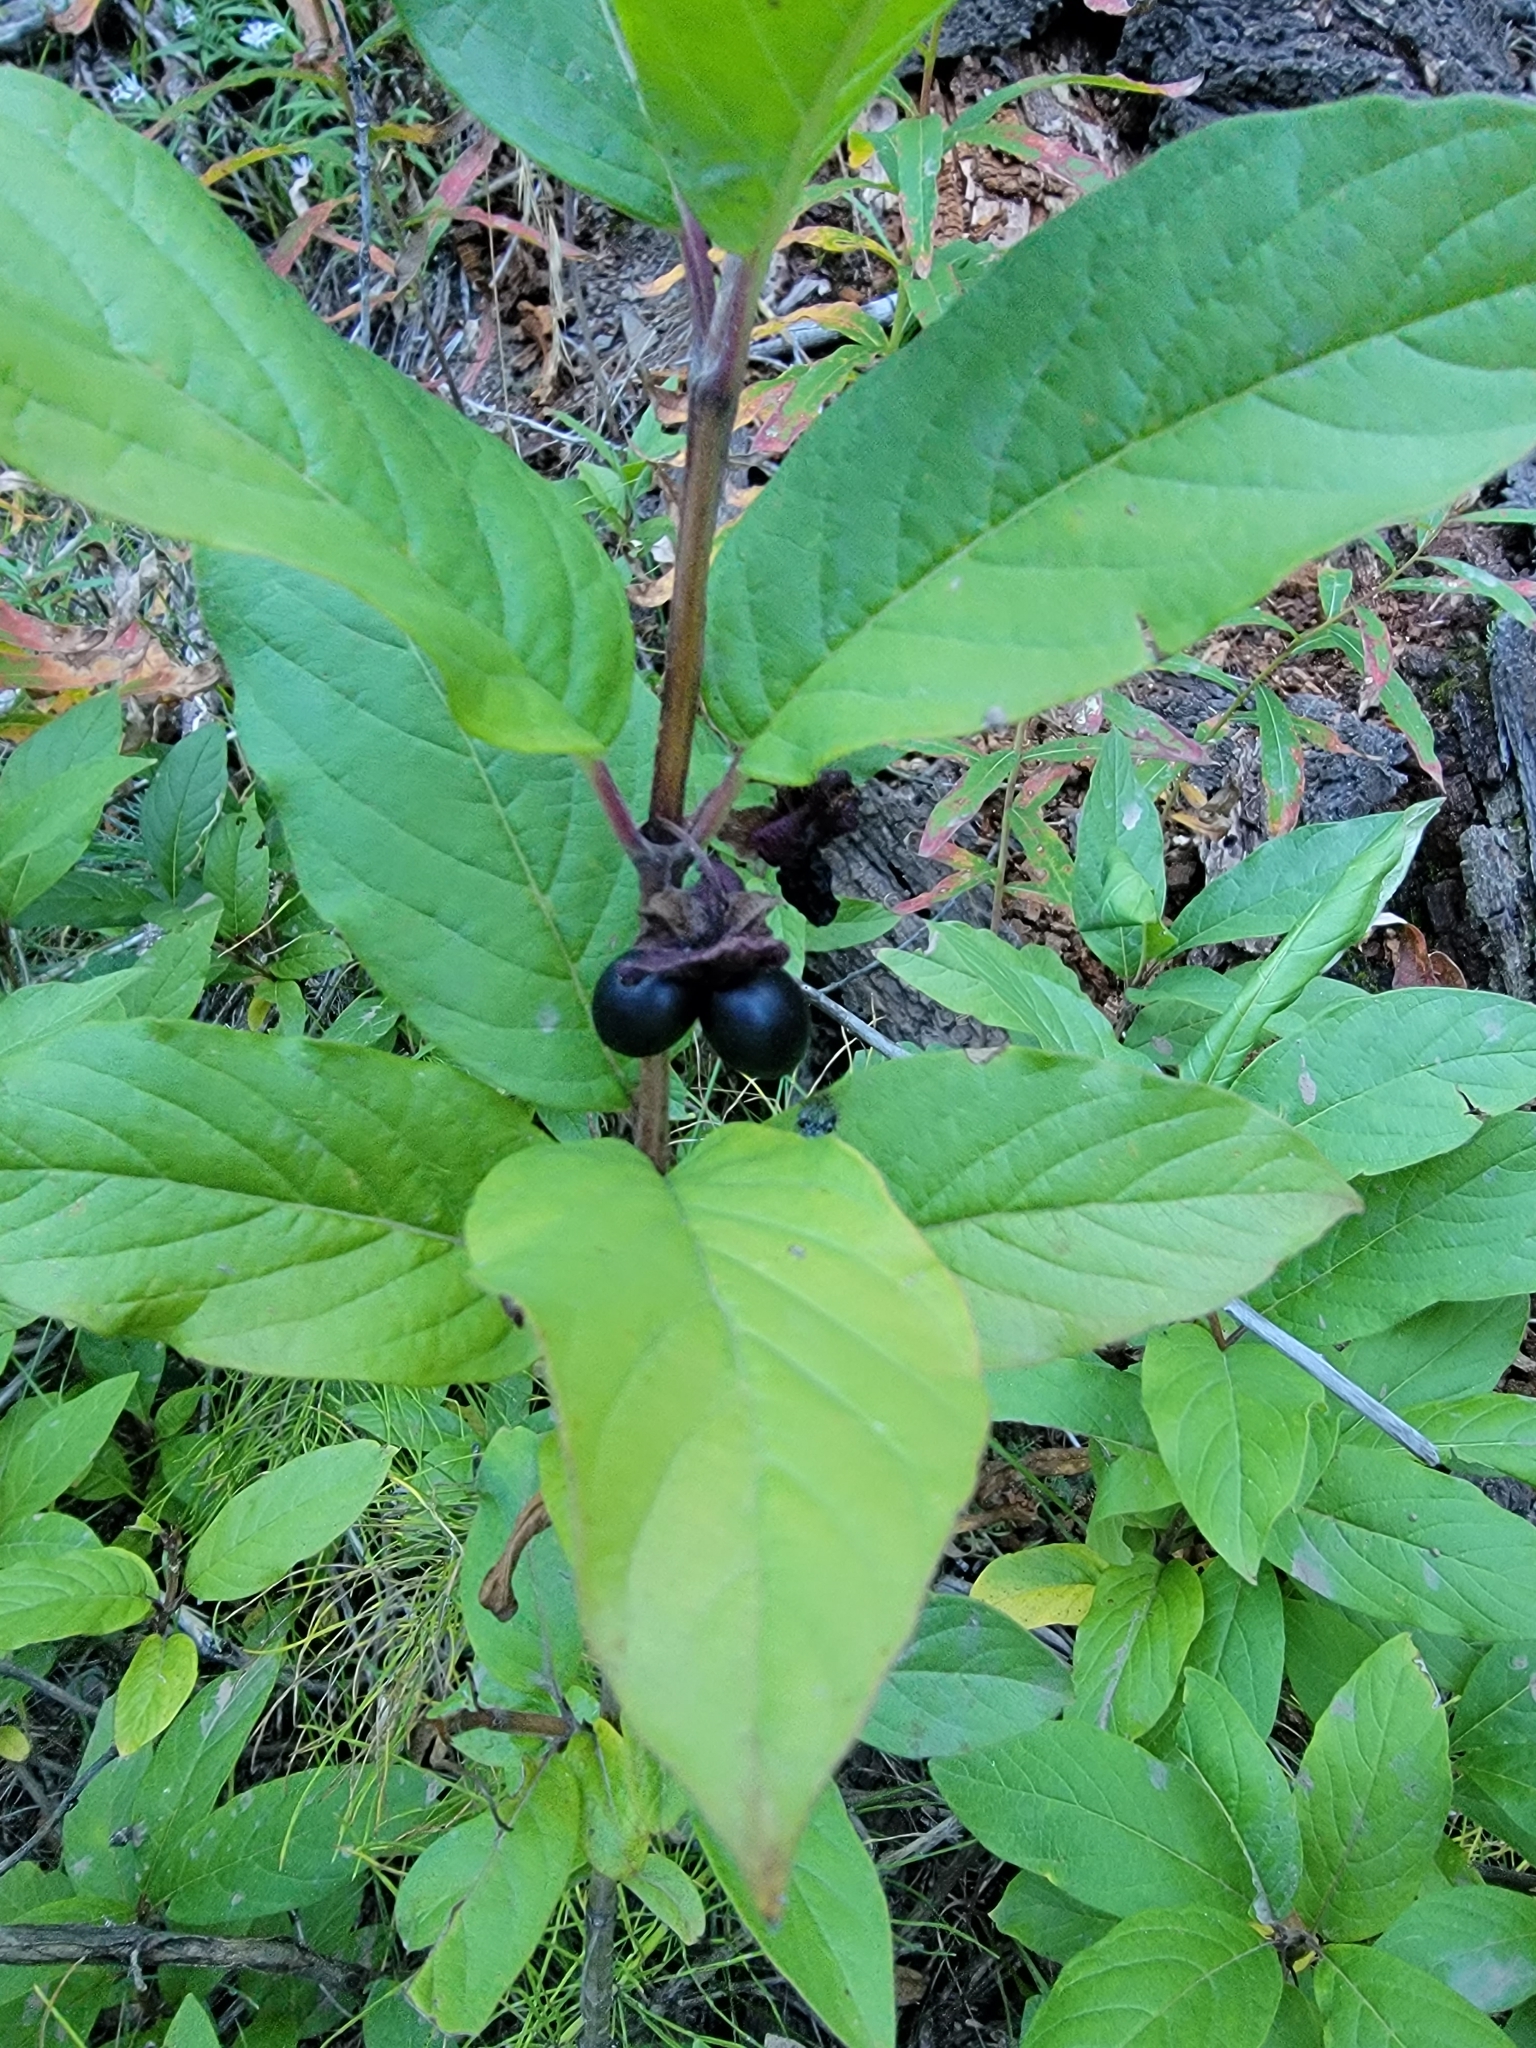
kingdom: Plantae
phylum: Tracheophyta
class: Magnoliopsida
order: Dipsacales
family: Caprifoliaceae
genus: Lonicera
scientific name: Lonicera involucrata
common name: Californian honeysuckle
